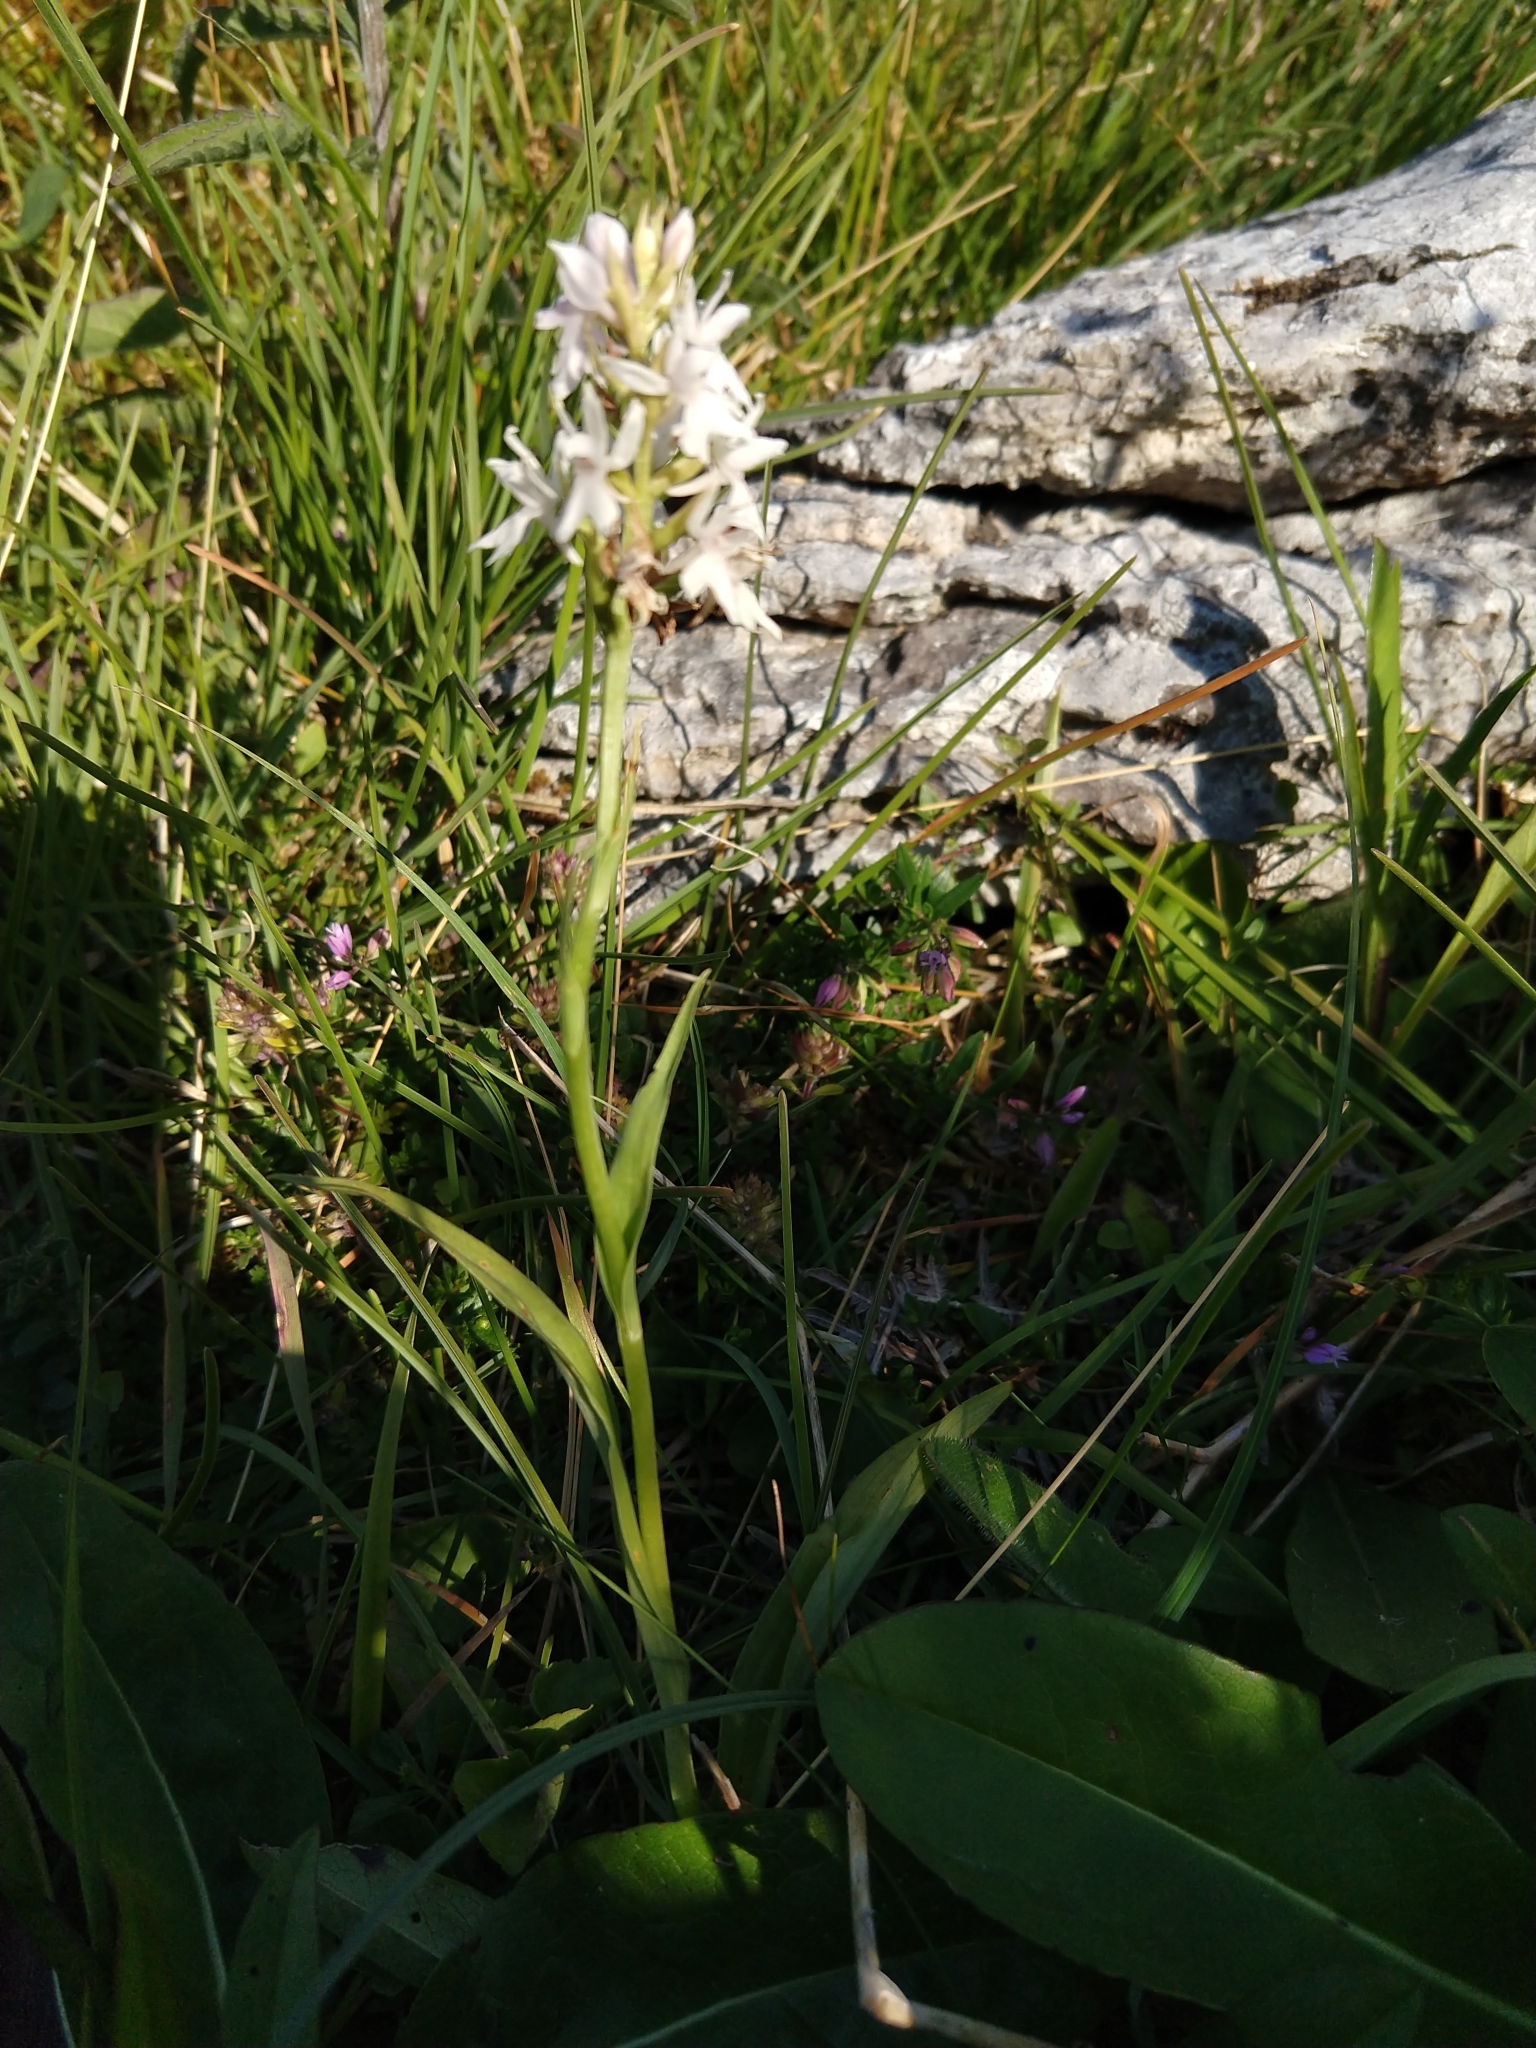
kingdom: Plantae
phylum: Tracheophyta
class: Liliopsida
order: Asparagales
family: Orchidaceae
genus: Gymnadenia
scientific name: Gymnadenia conopsea
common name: Fragrant orchid
